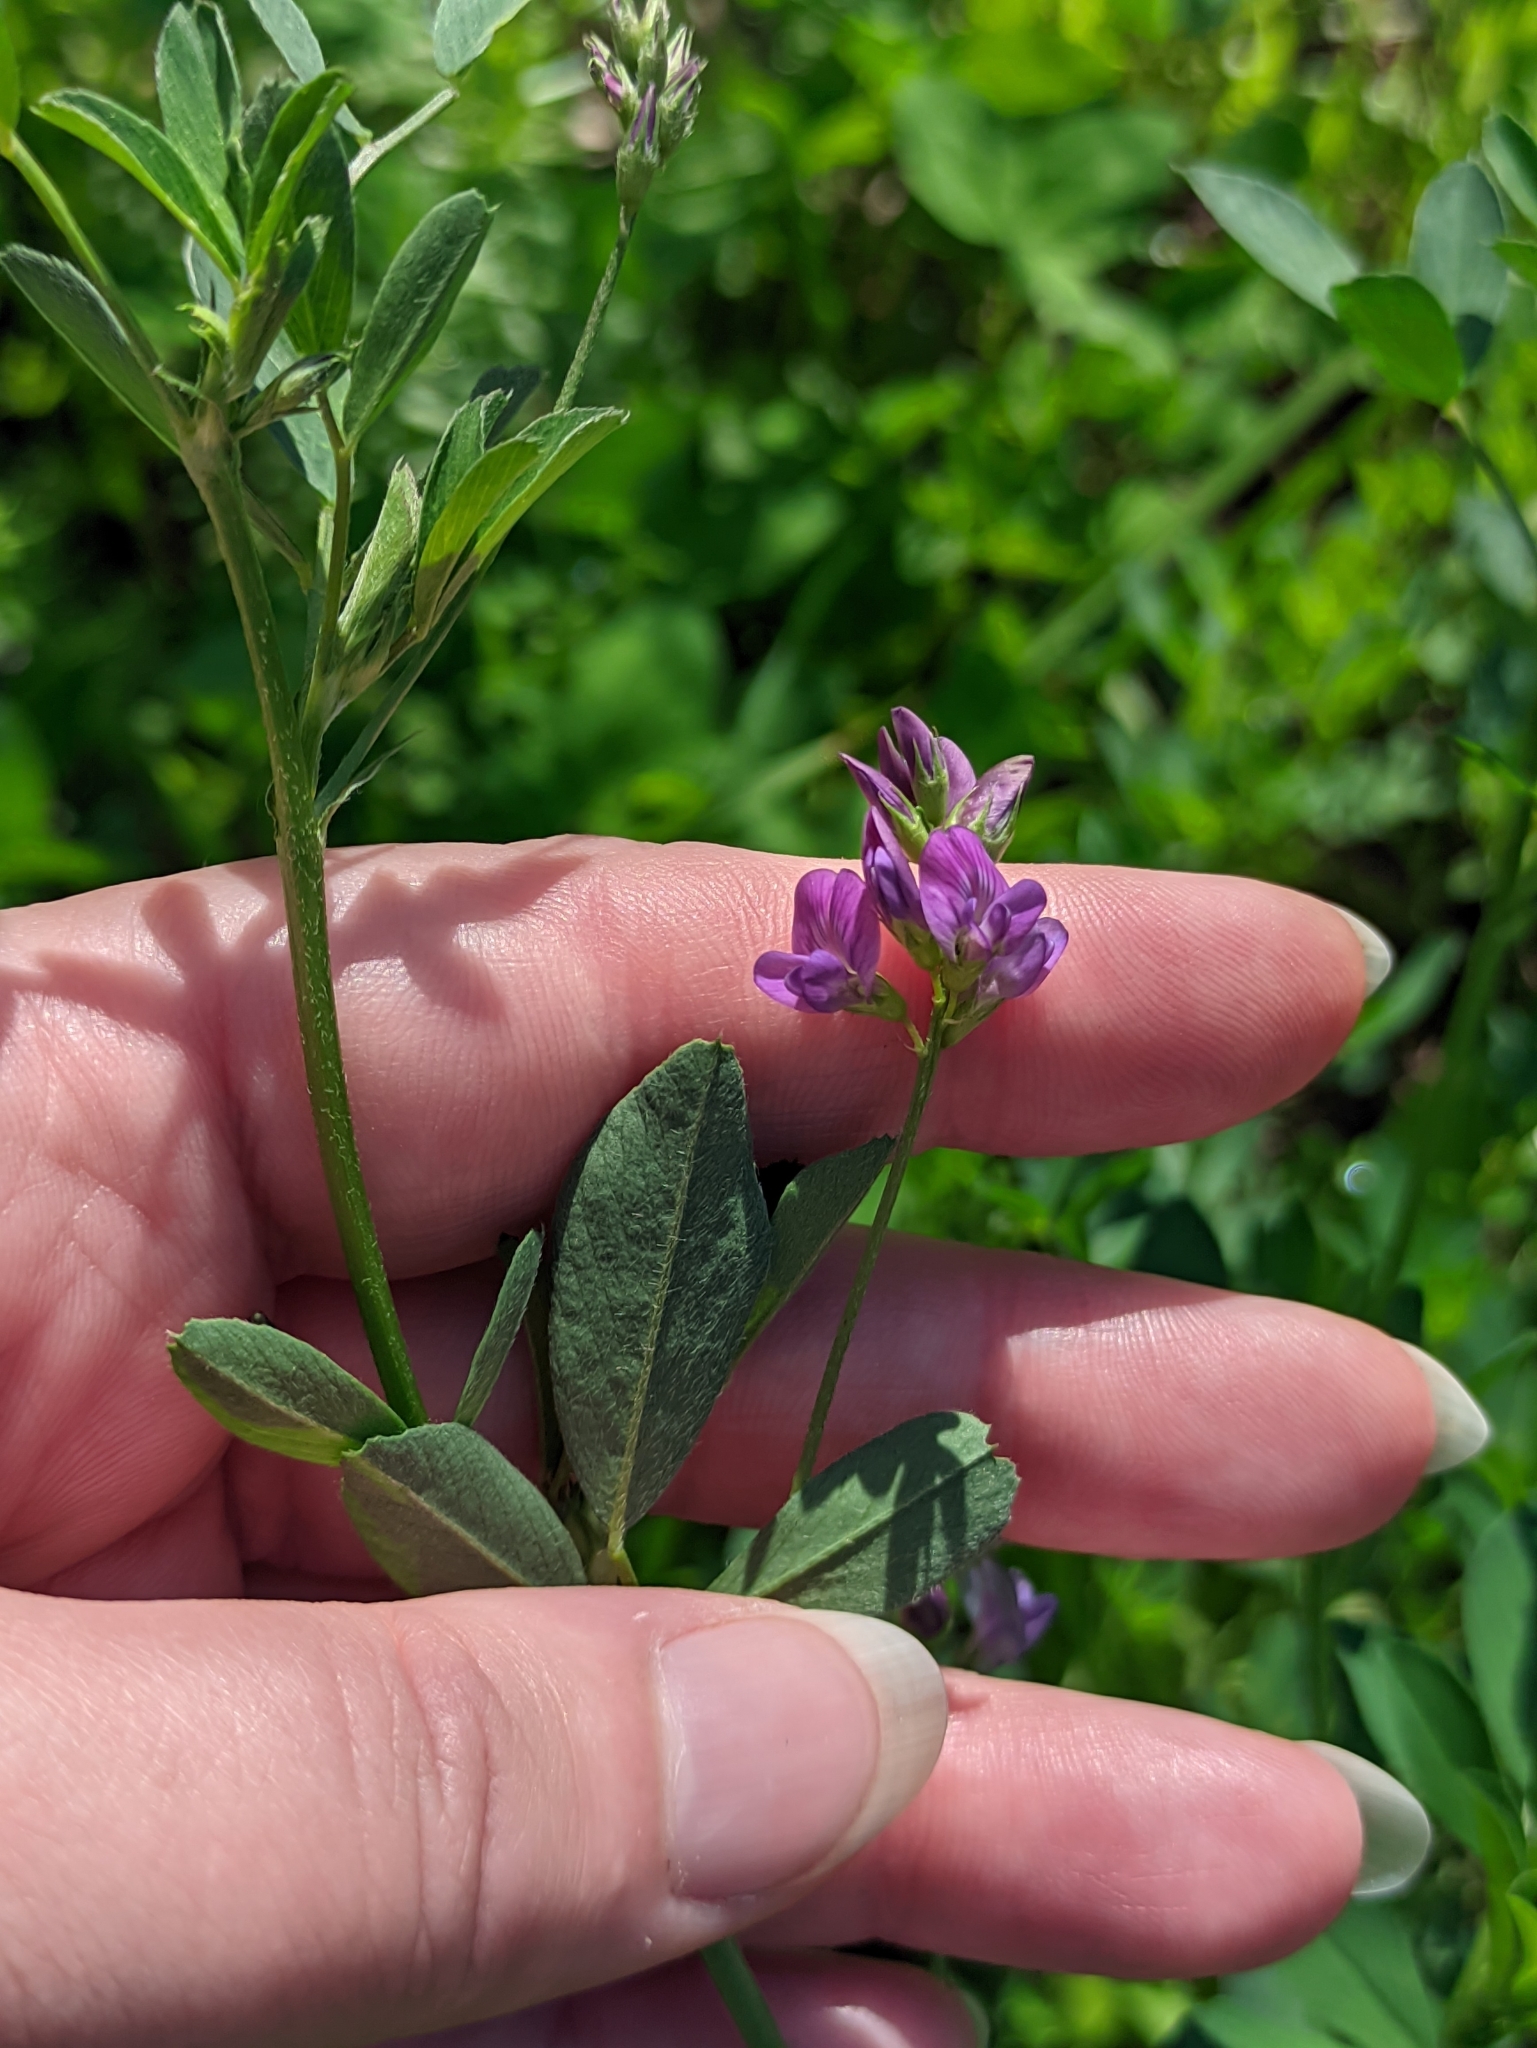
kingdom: Plantae
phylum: Tracheophyta
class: Magnoliopsida
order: Fabales
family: Fabaceae
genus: Medicago
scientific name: Medicago sativa
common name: Alfalfa
